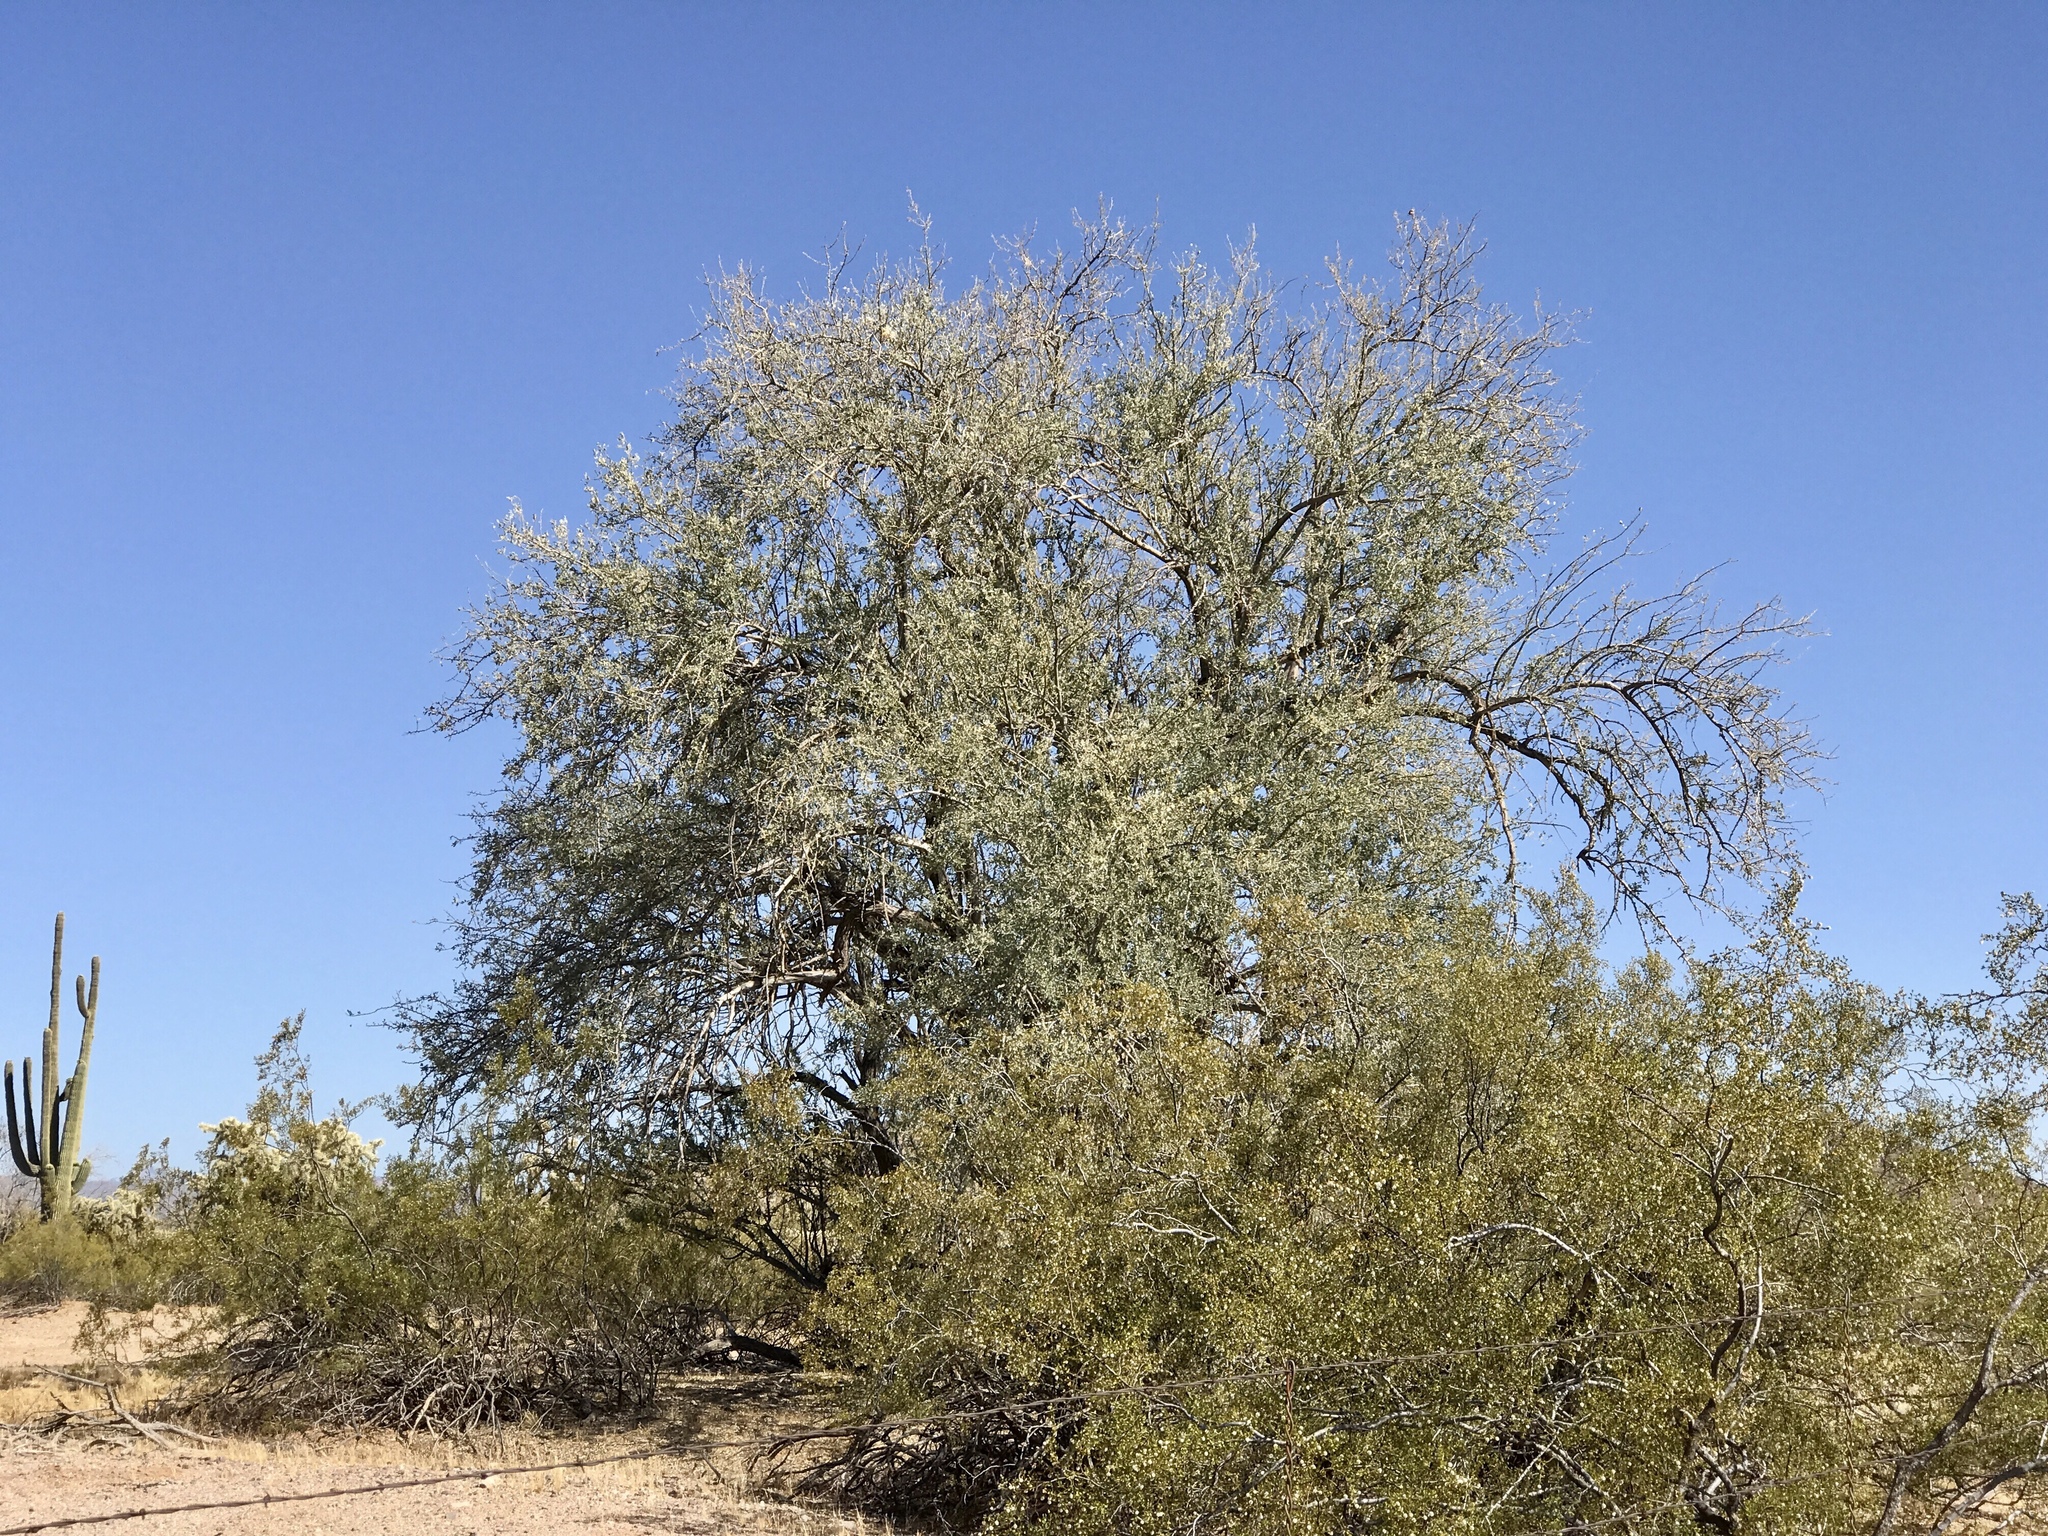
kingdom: Plantae
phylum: Tracheophyta
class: Magnoliopsida
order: Fabales
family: Fabaceae
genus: Olneya
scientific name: Olneya tesota
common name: Desert ironwood
